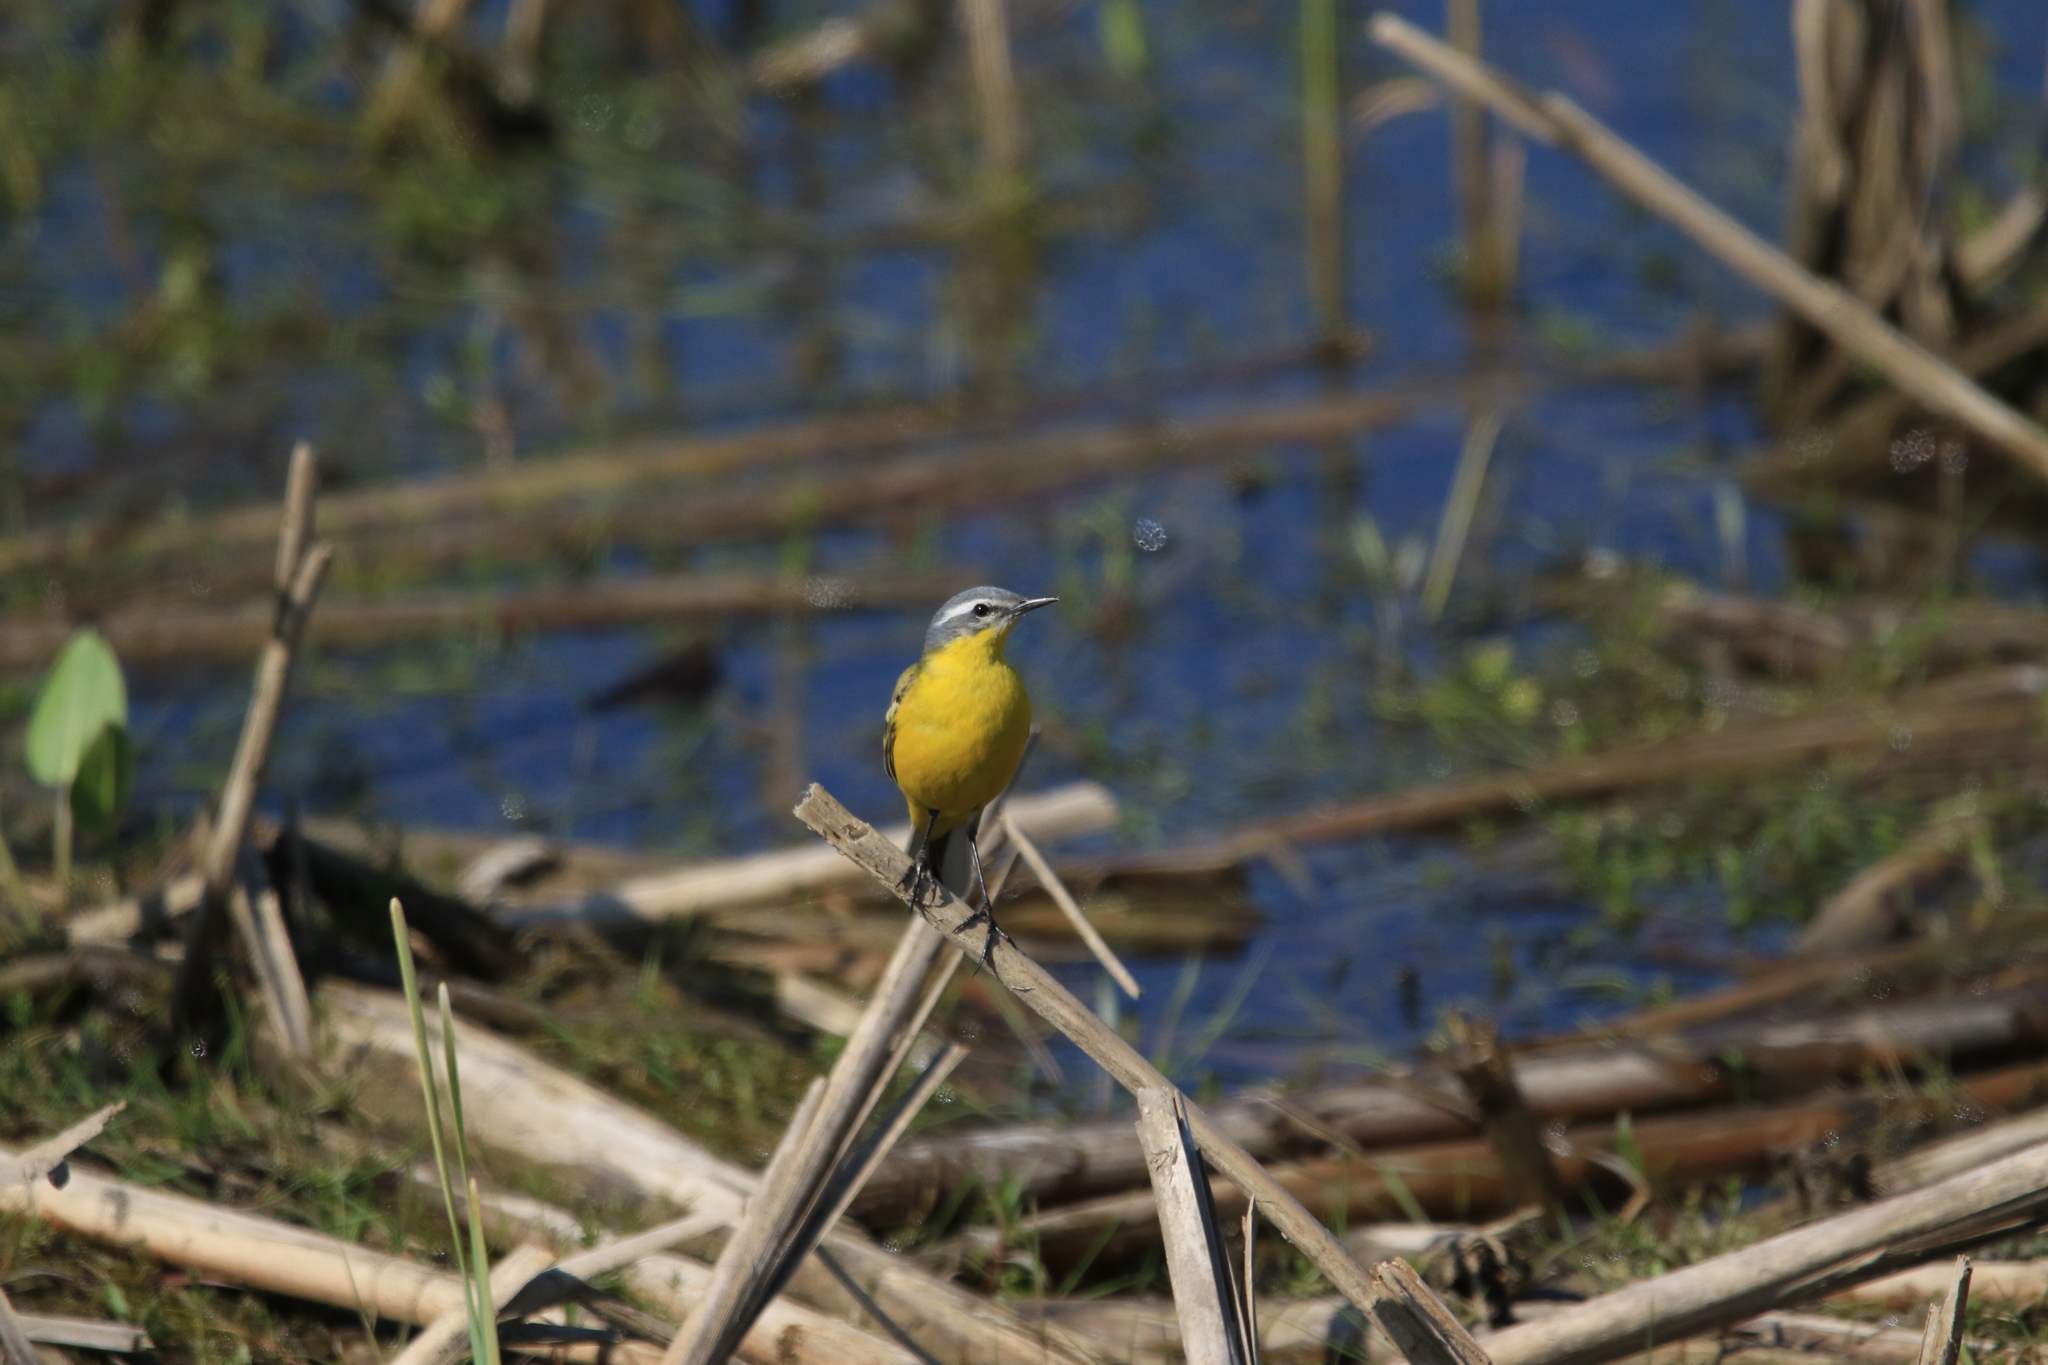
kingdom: Animalia
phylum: Chordata
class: Aves
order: Passeriformes
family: Motacillidae
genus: Motacilla
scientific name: Motacilla flava
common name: Western yellow wagtail
